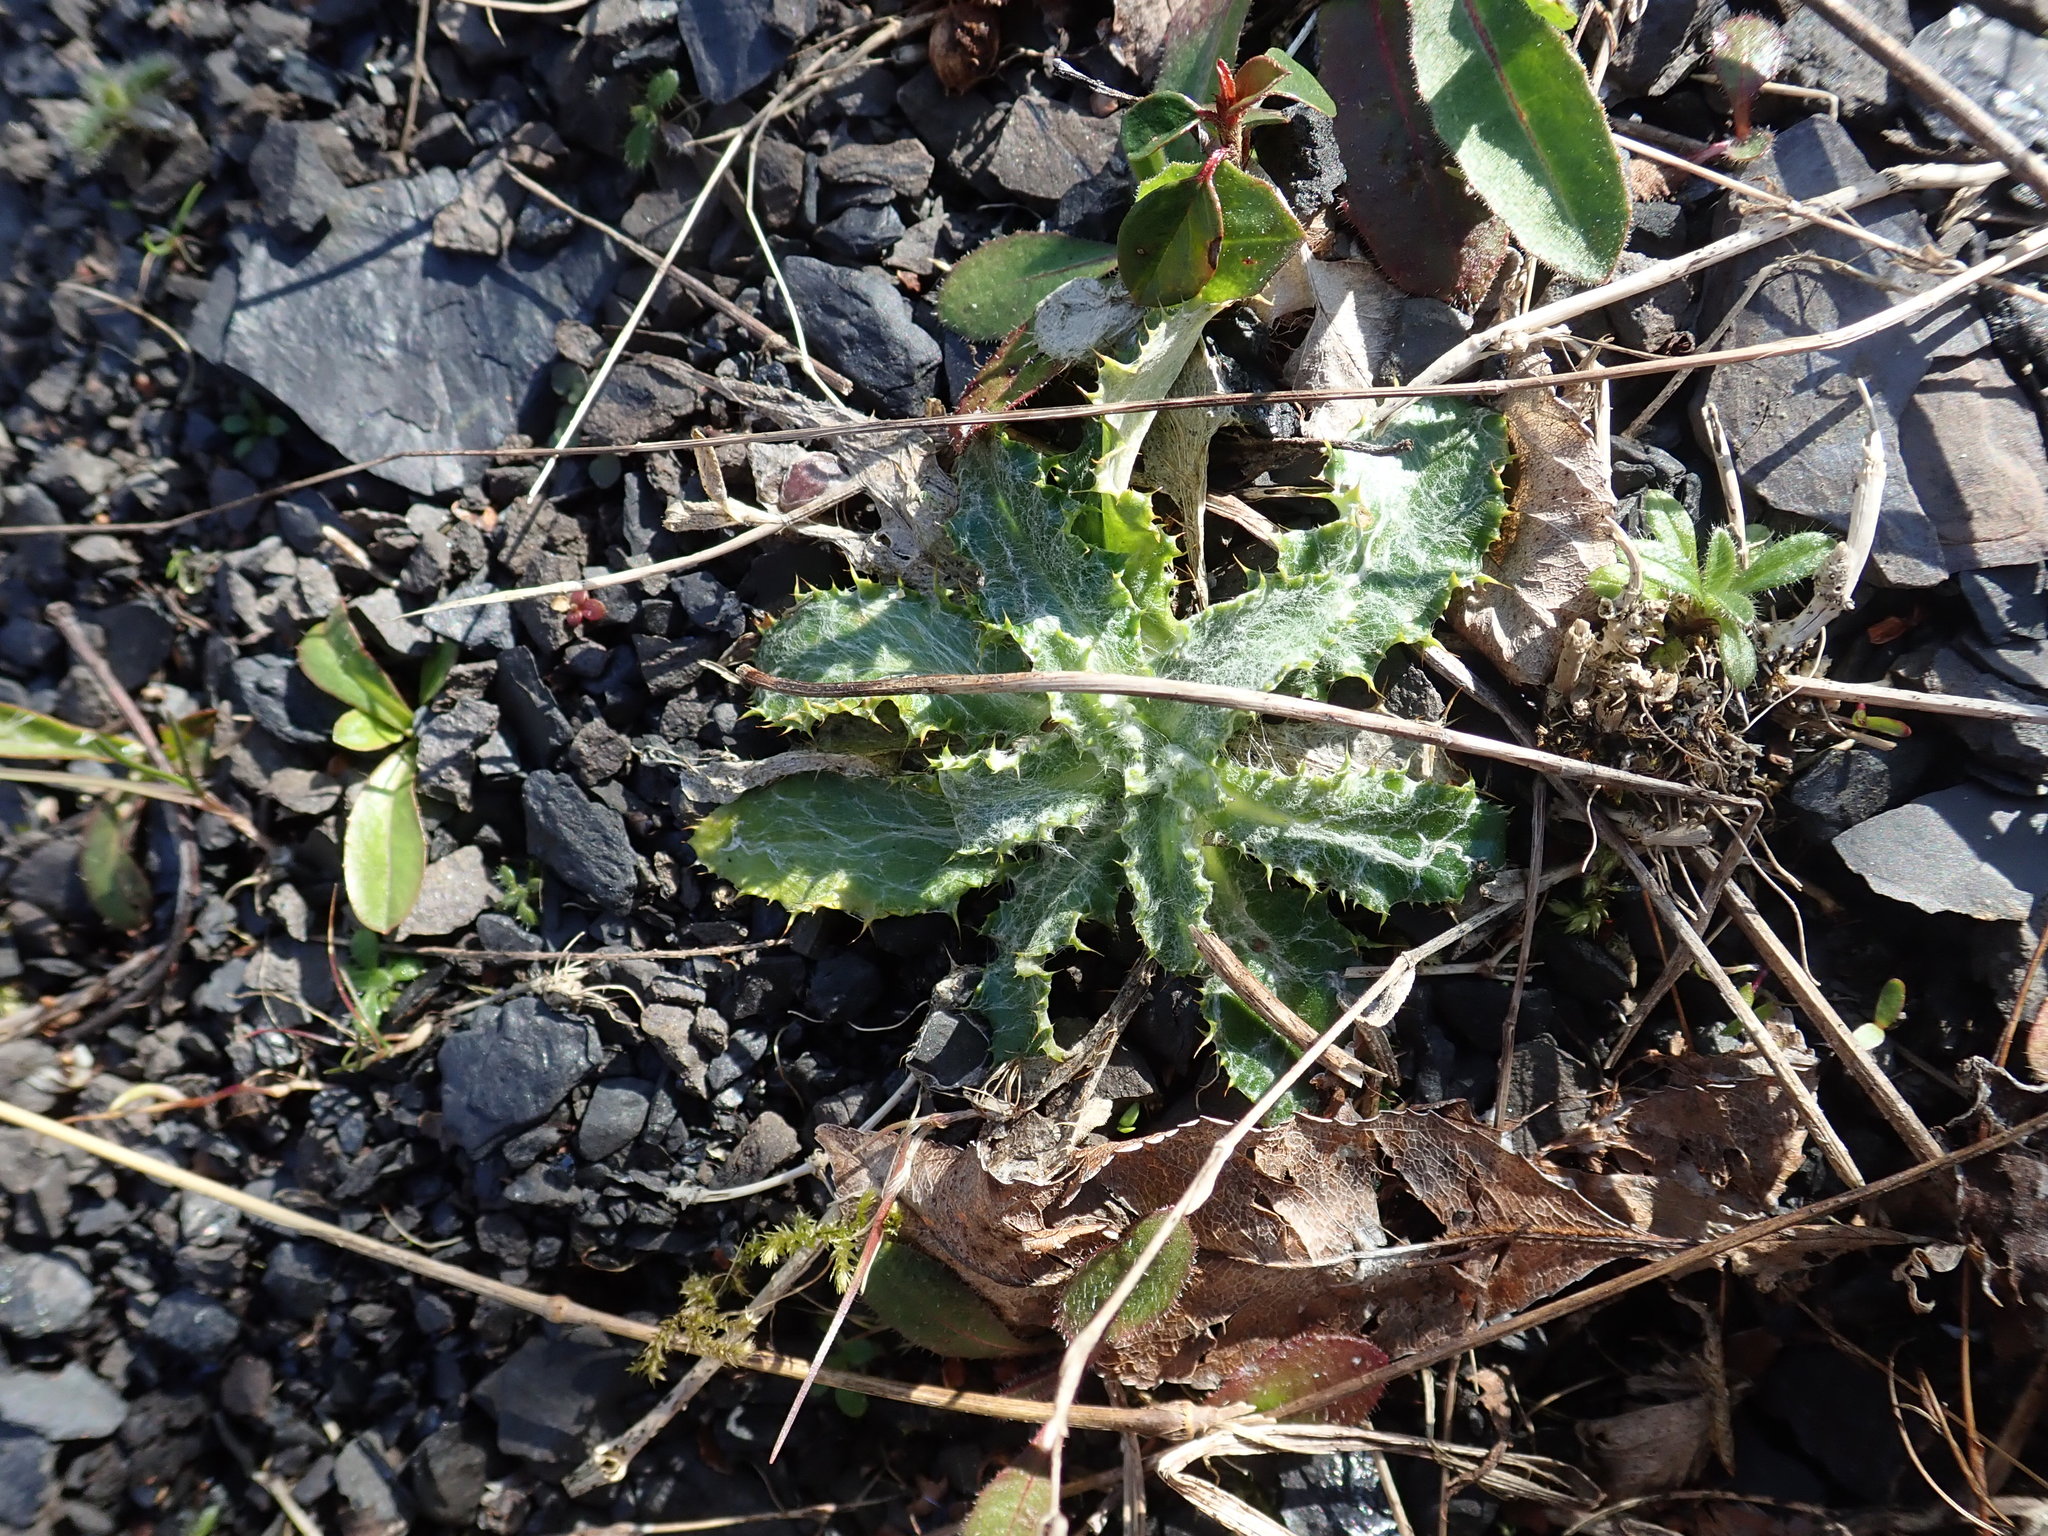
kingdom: Plantae
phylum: Tracheophyta
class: Magnoliopsida
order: Asterales
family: Asteraceae
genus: Carlina
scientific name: Carlina vulgaris
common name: Carline thistle
